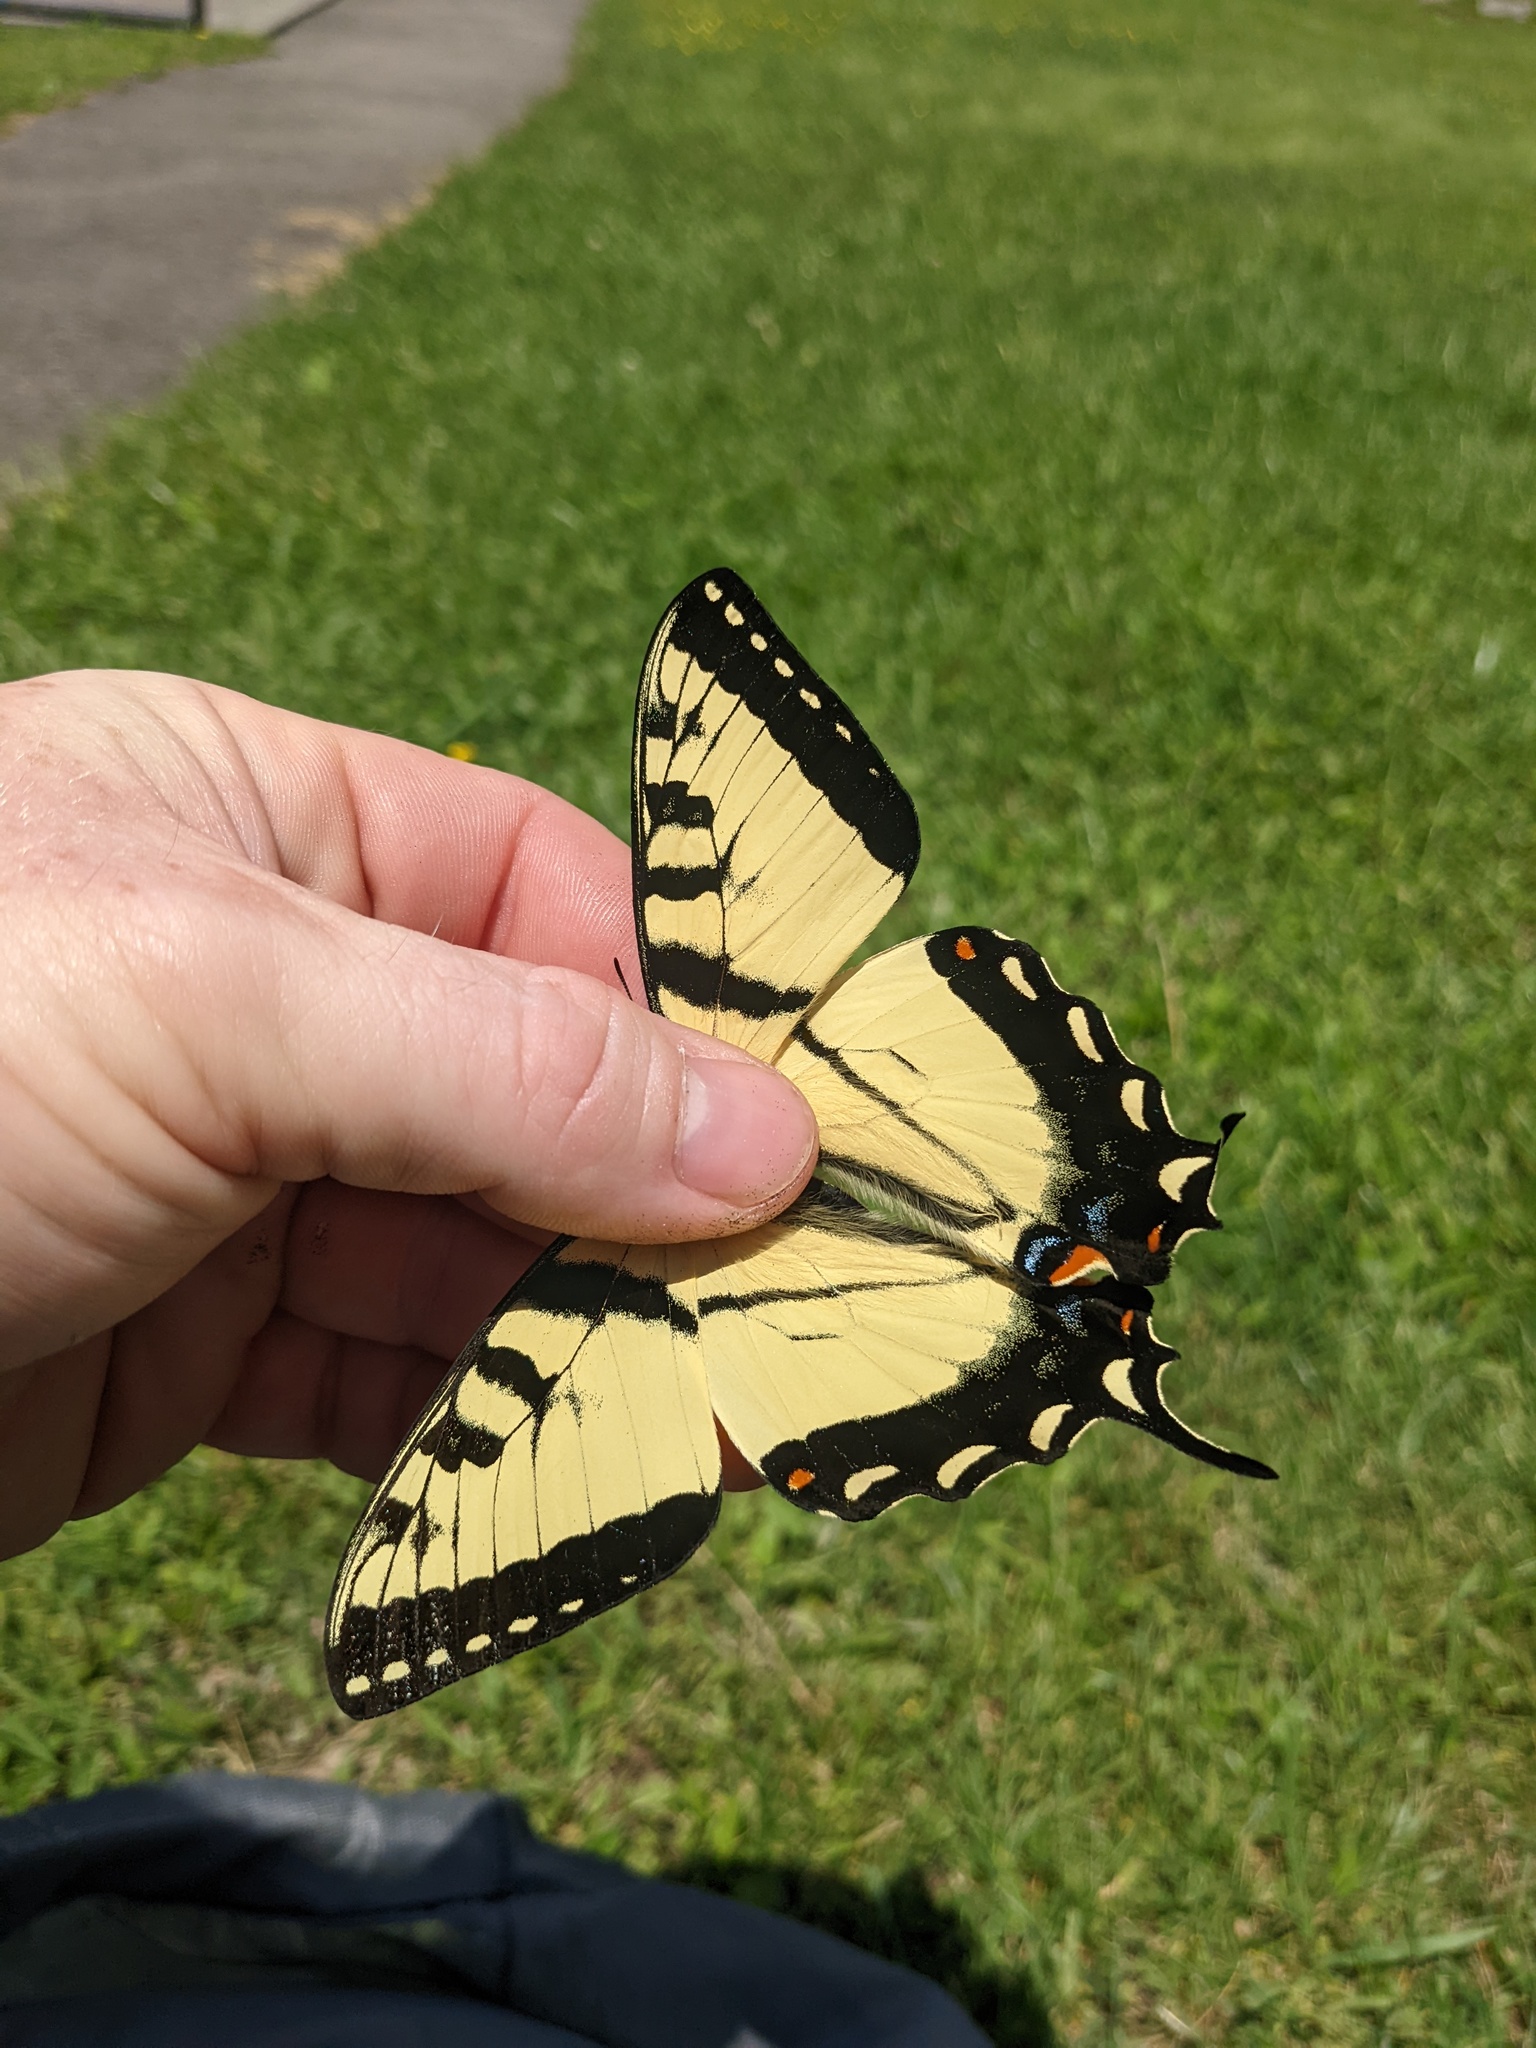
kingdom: Animalia
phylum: Arthropoda
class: Insecta
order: Lepidoptera
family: Papilionidae
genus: Papilio
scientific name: Papilio appalachiensis
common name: Appalachian tiger swallowtail
